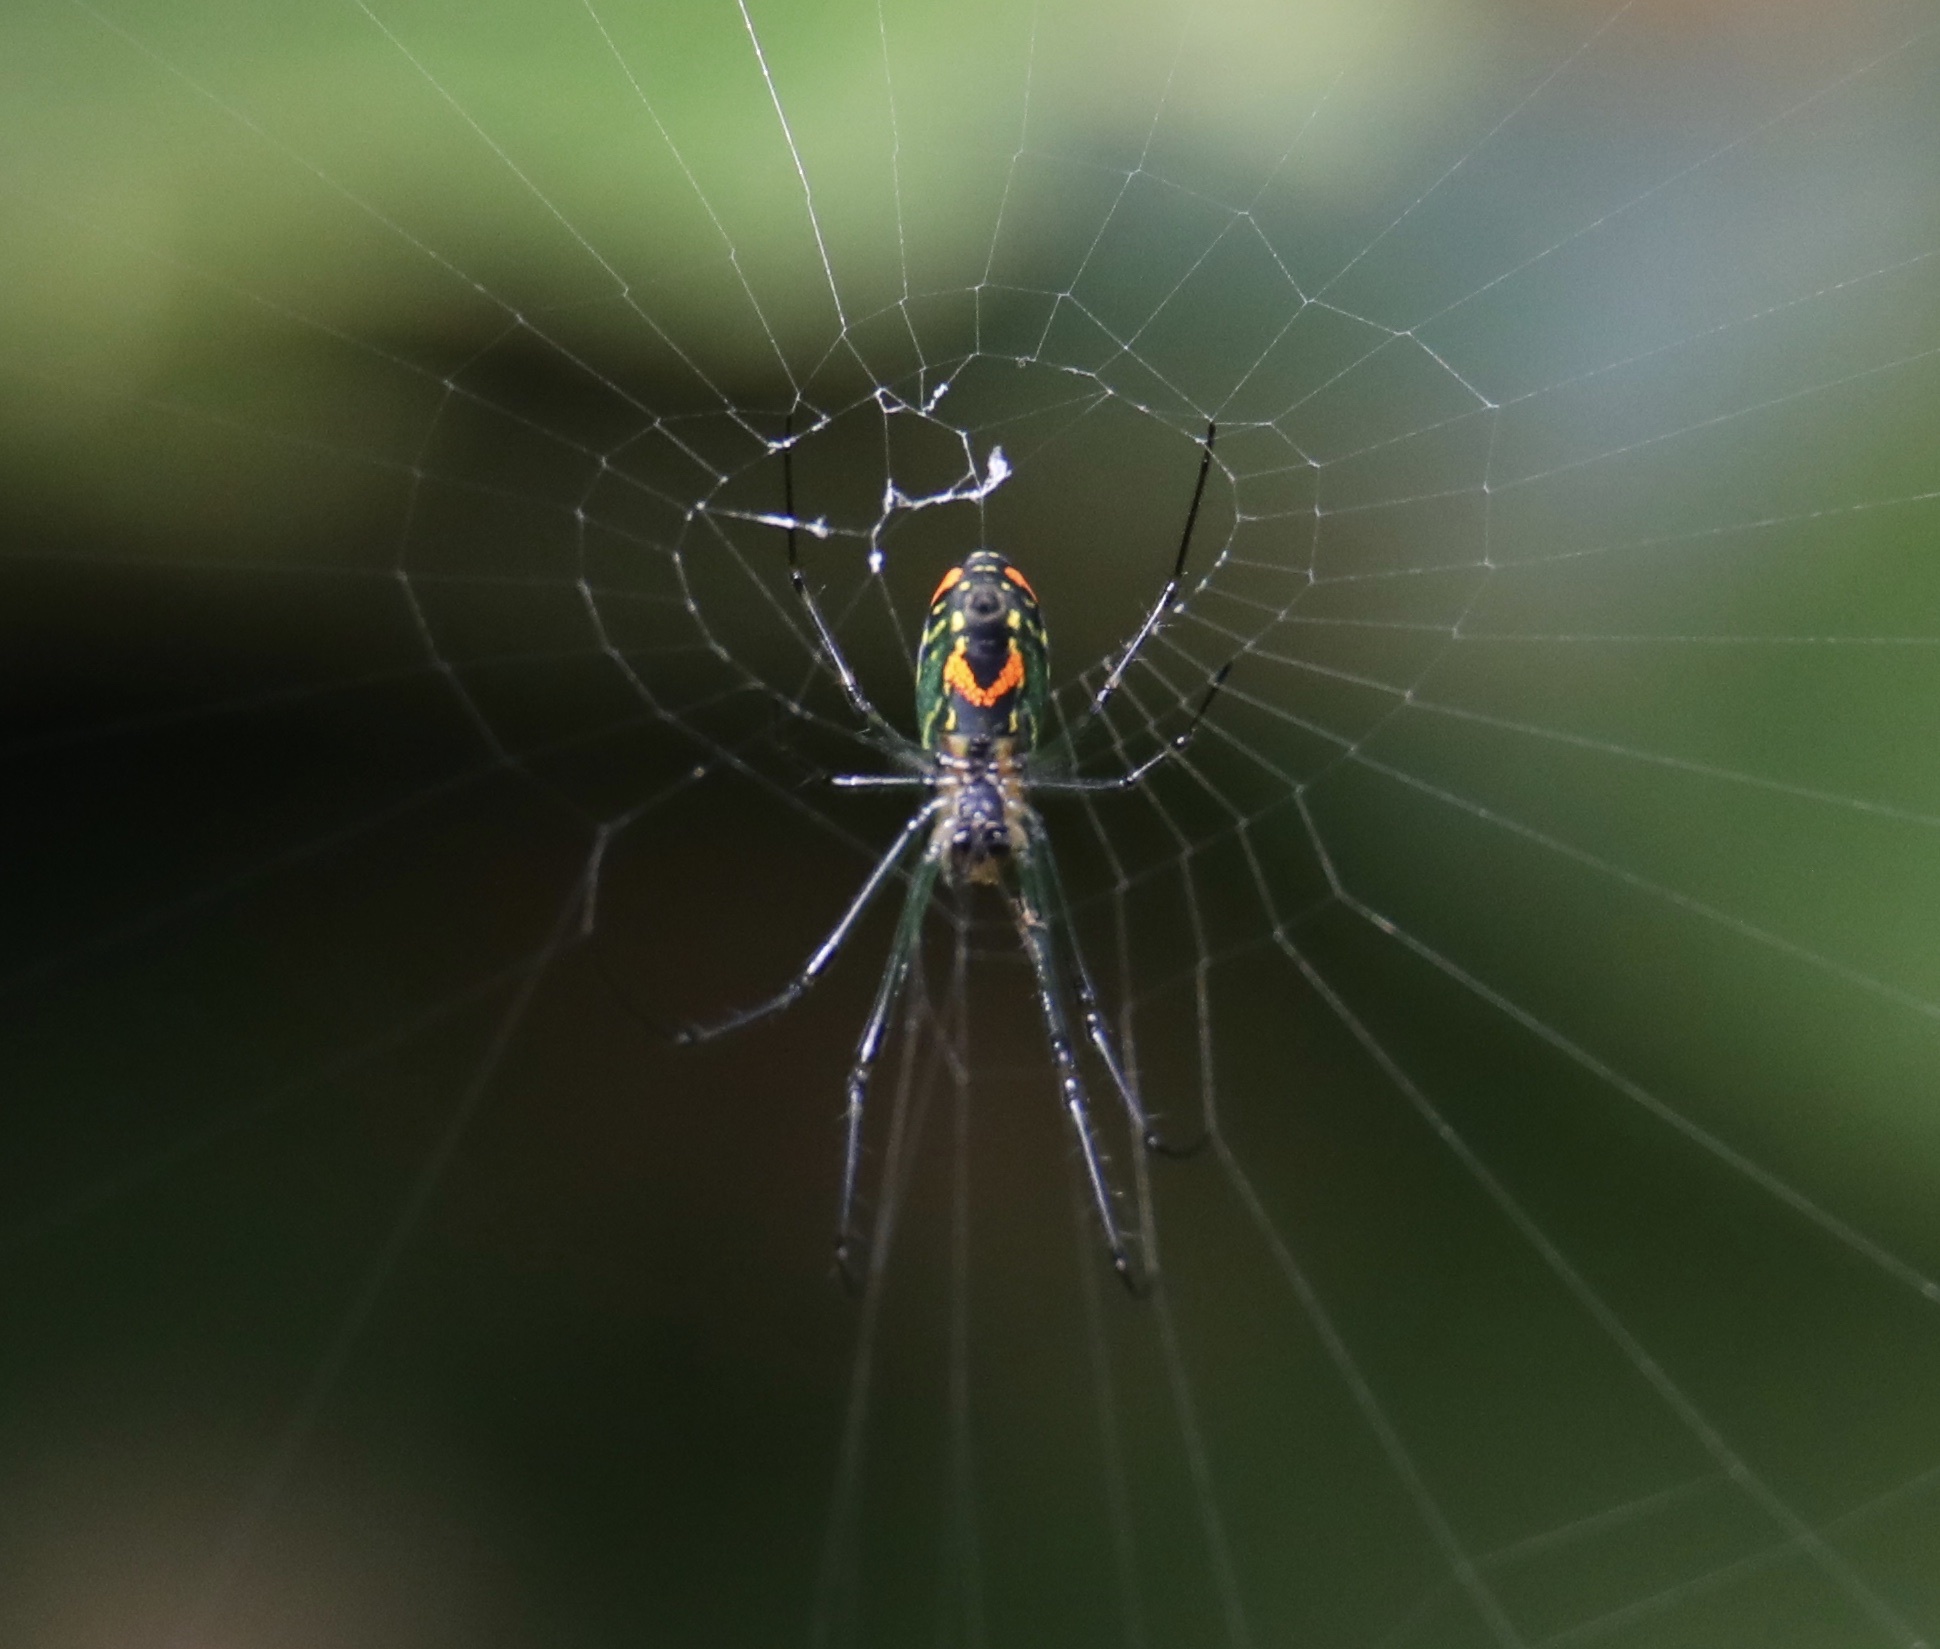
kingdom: Animalia
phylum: Arthropoda
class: Arachnida
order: Araneae
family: Tetragnathidae
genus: Leucauge
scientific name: Leucauge argyrobapta
